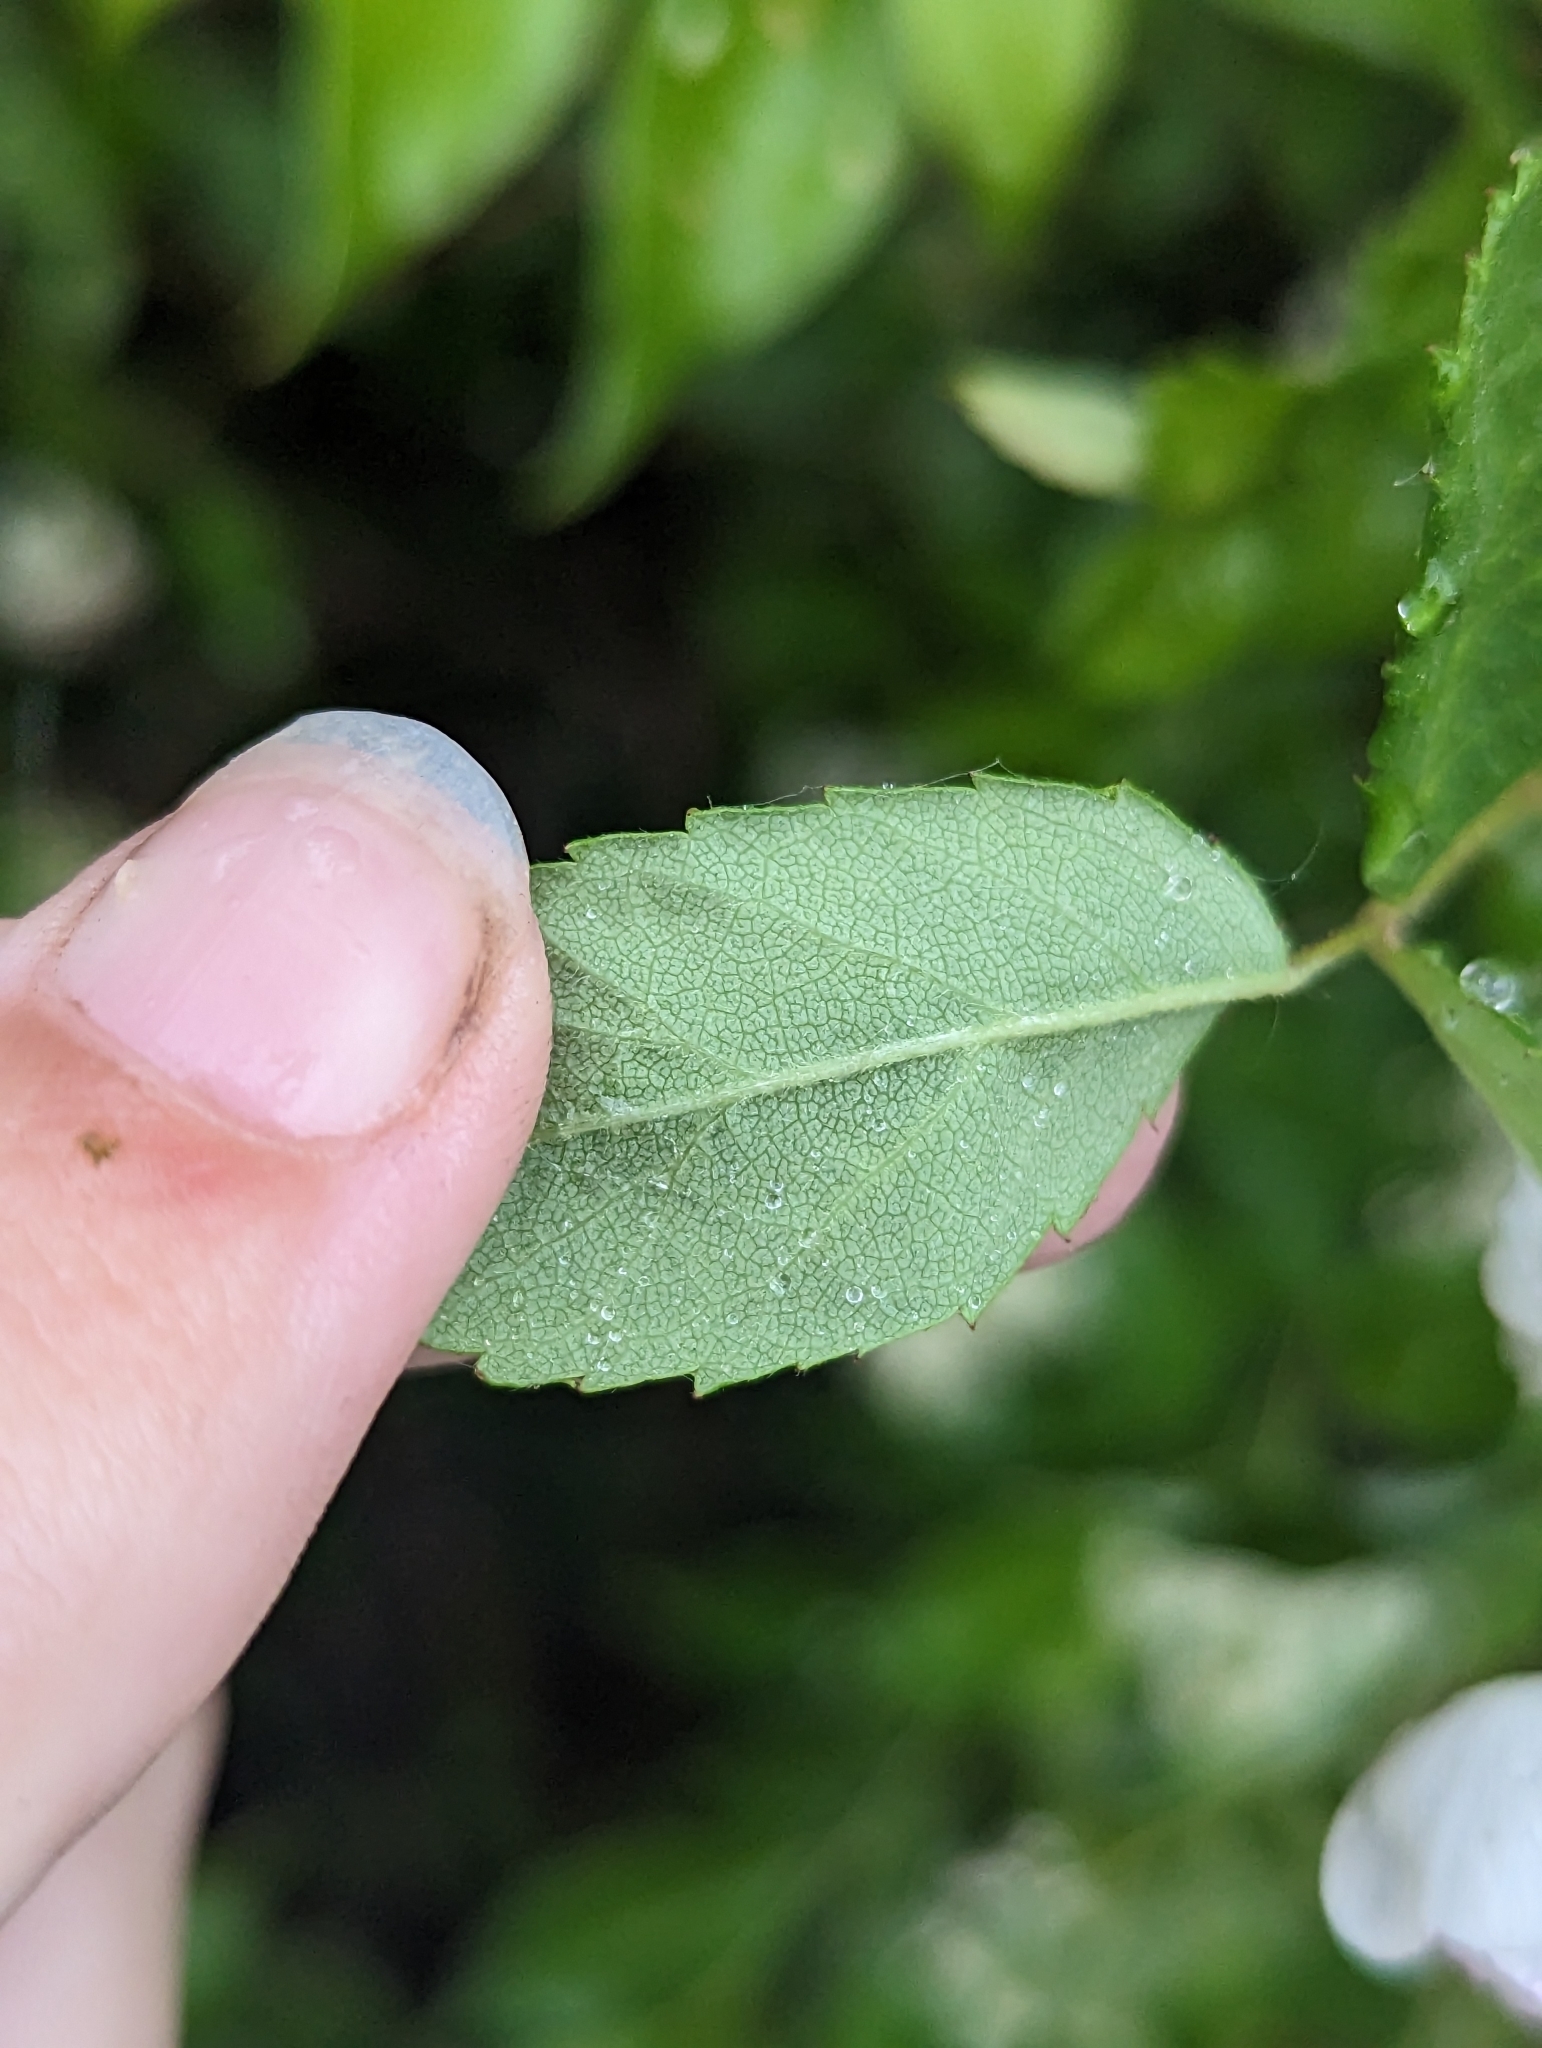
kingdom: Plantae
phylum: Tracheophyta
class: Magnoliopsida
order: Rosales
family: Rosaceae
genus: Rosa
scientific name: Rosa multiflora
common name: Multiflora rose
